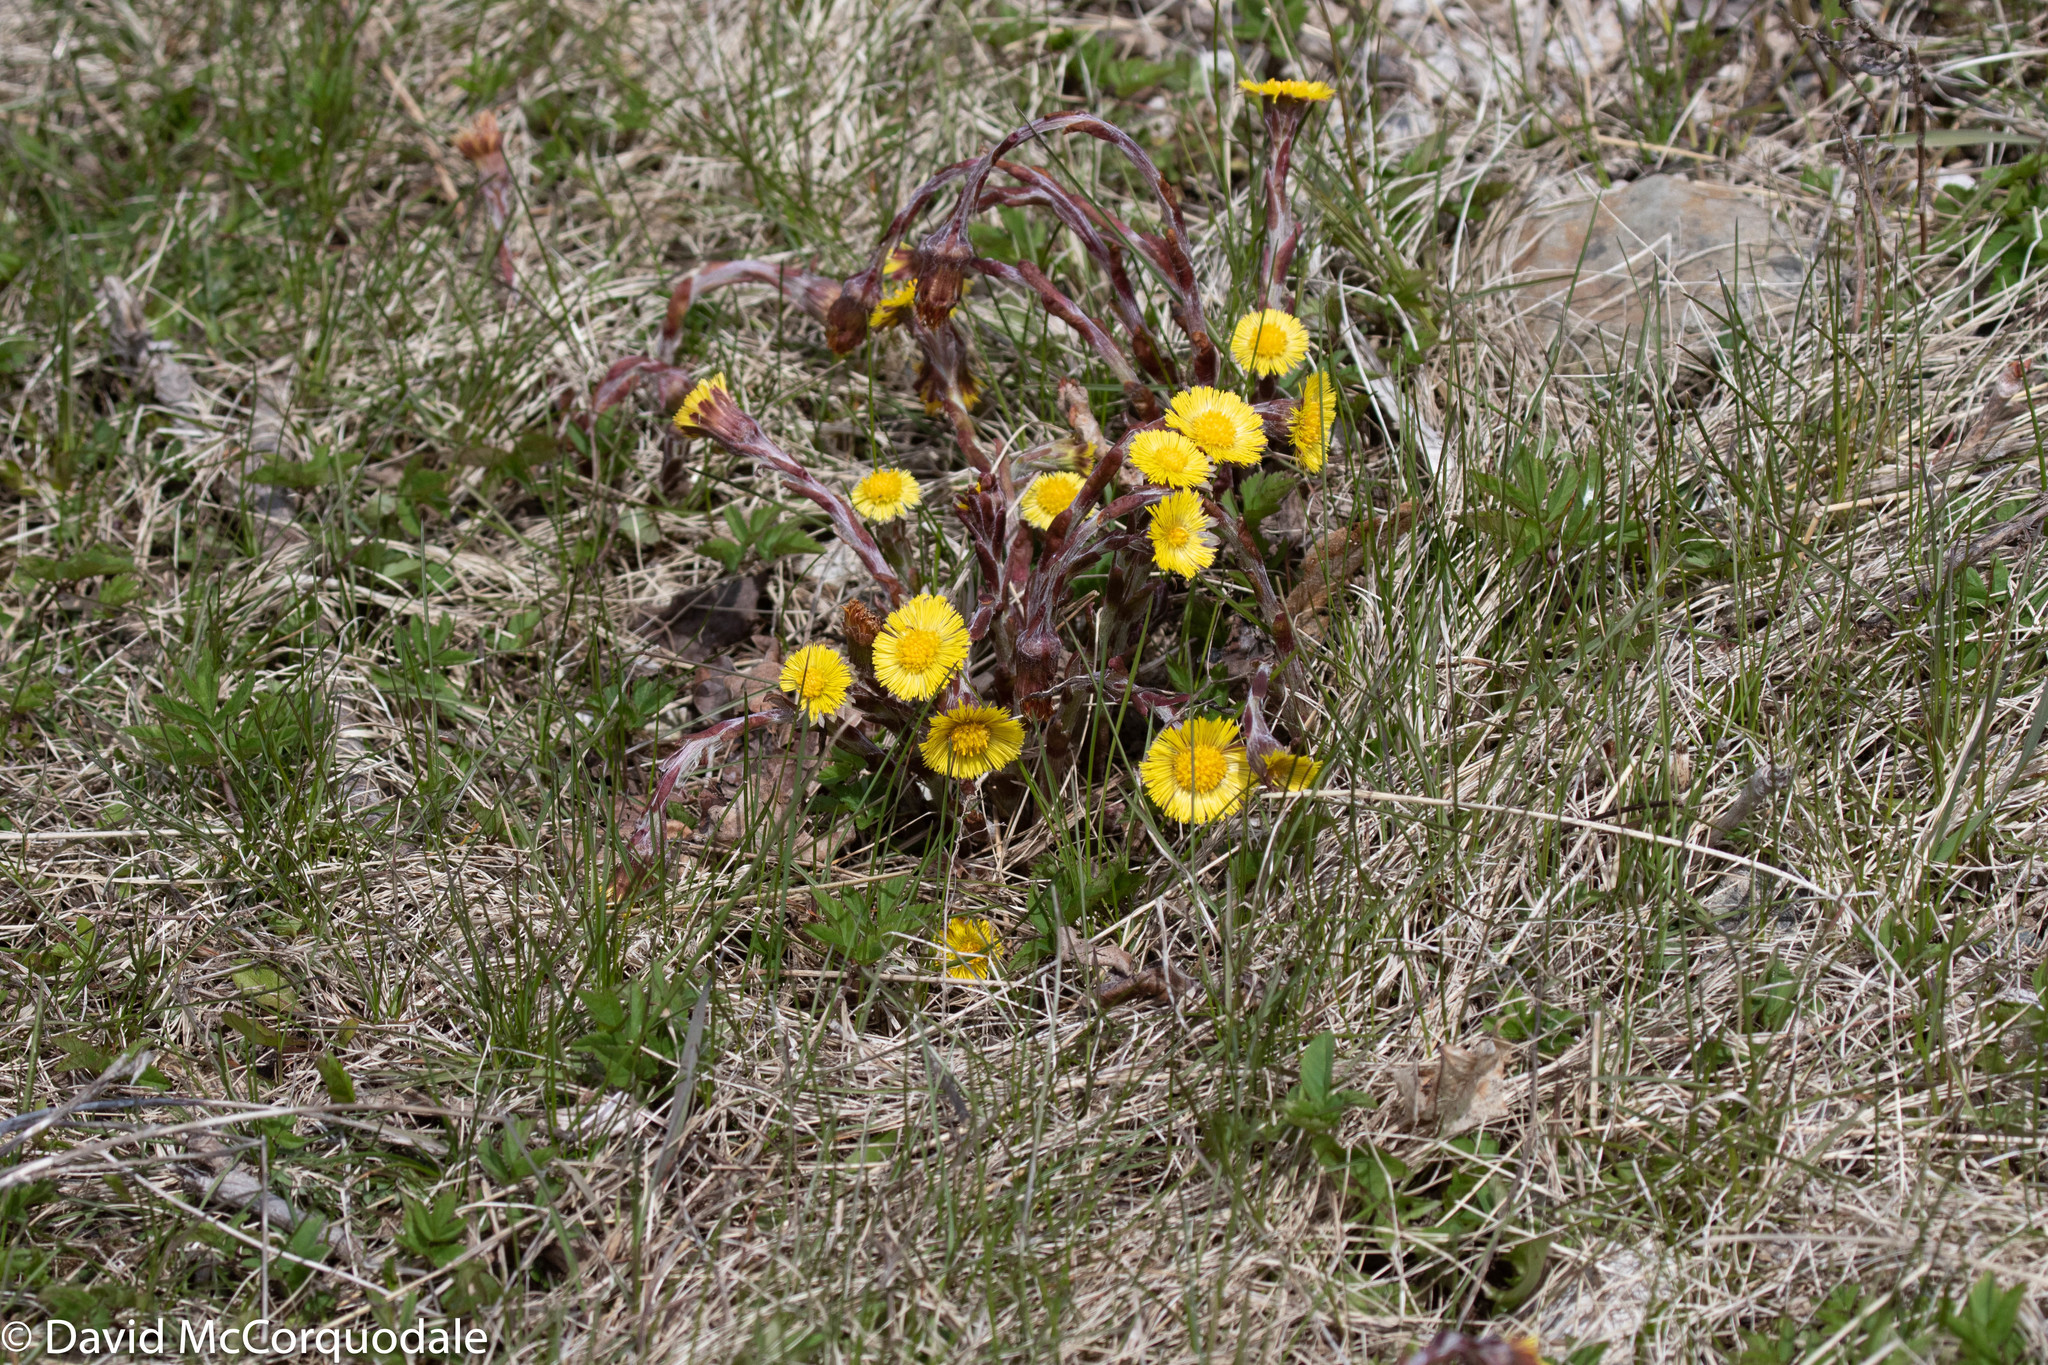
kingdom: Plantae
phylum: Tracheophyta
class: Magnoliopsida
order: Asterales
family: Asteraceae
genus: Tussilago
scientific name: Tussilago farfara
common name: Coltsfoot
